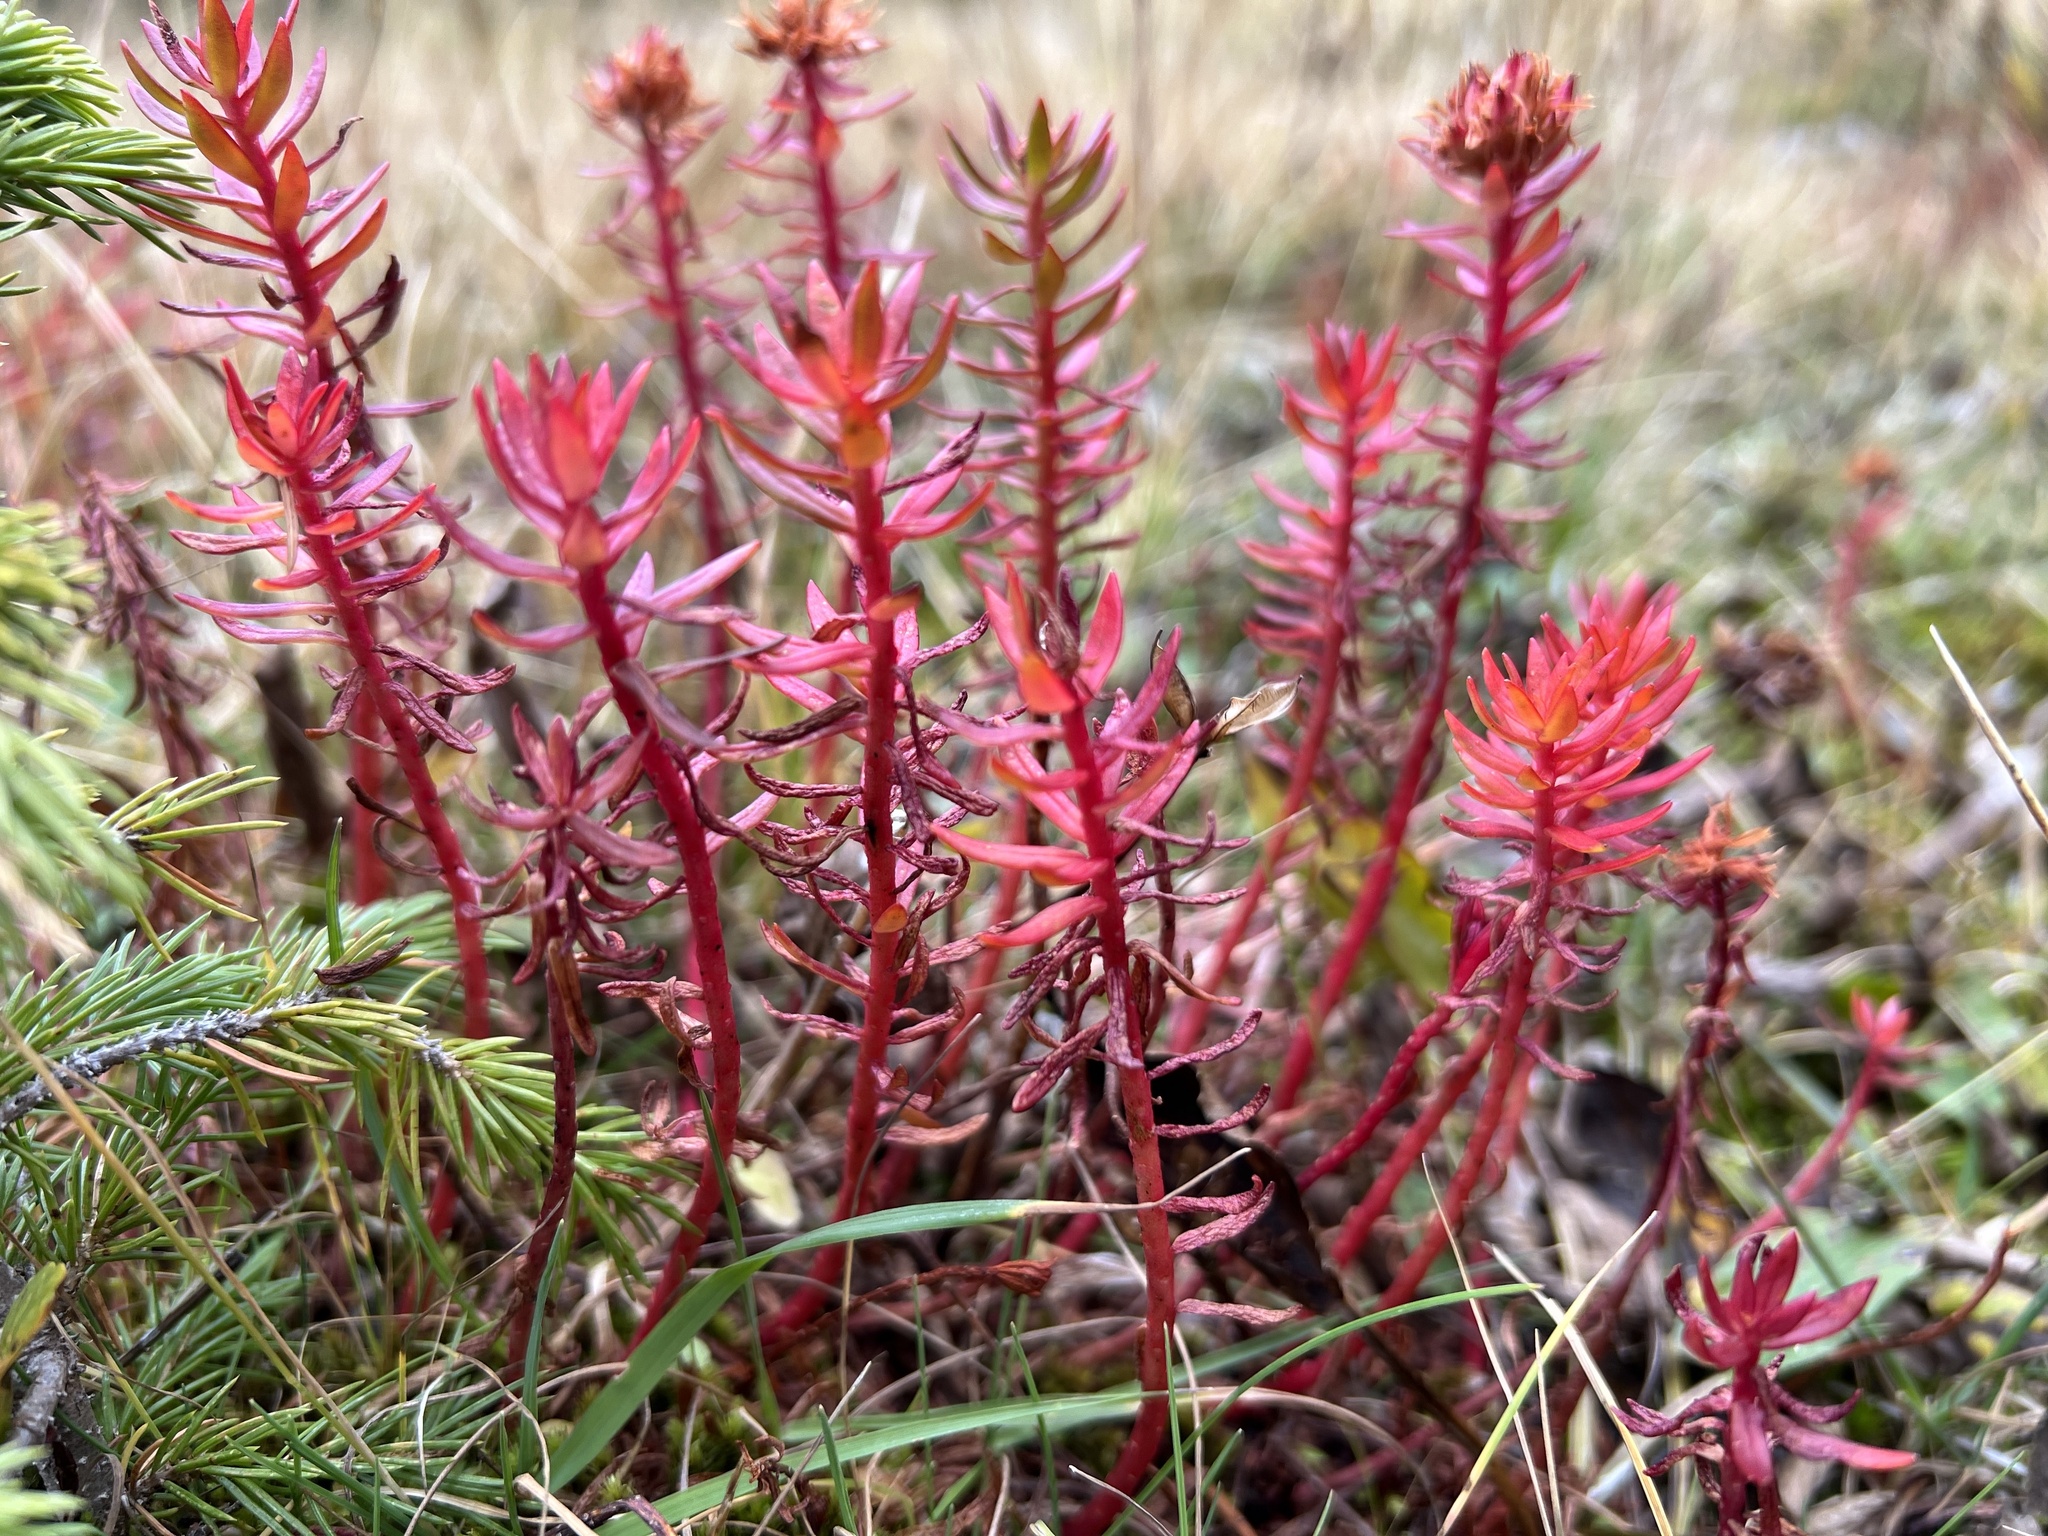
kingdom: Plantae
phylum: Tracheophyta
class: Magnoliopsida
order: Saxifragales
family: Crassulaceae
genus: Rhodiola
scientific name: Rhodiola rhodantha
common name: Red orpine
